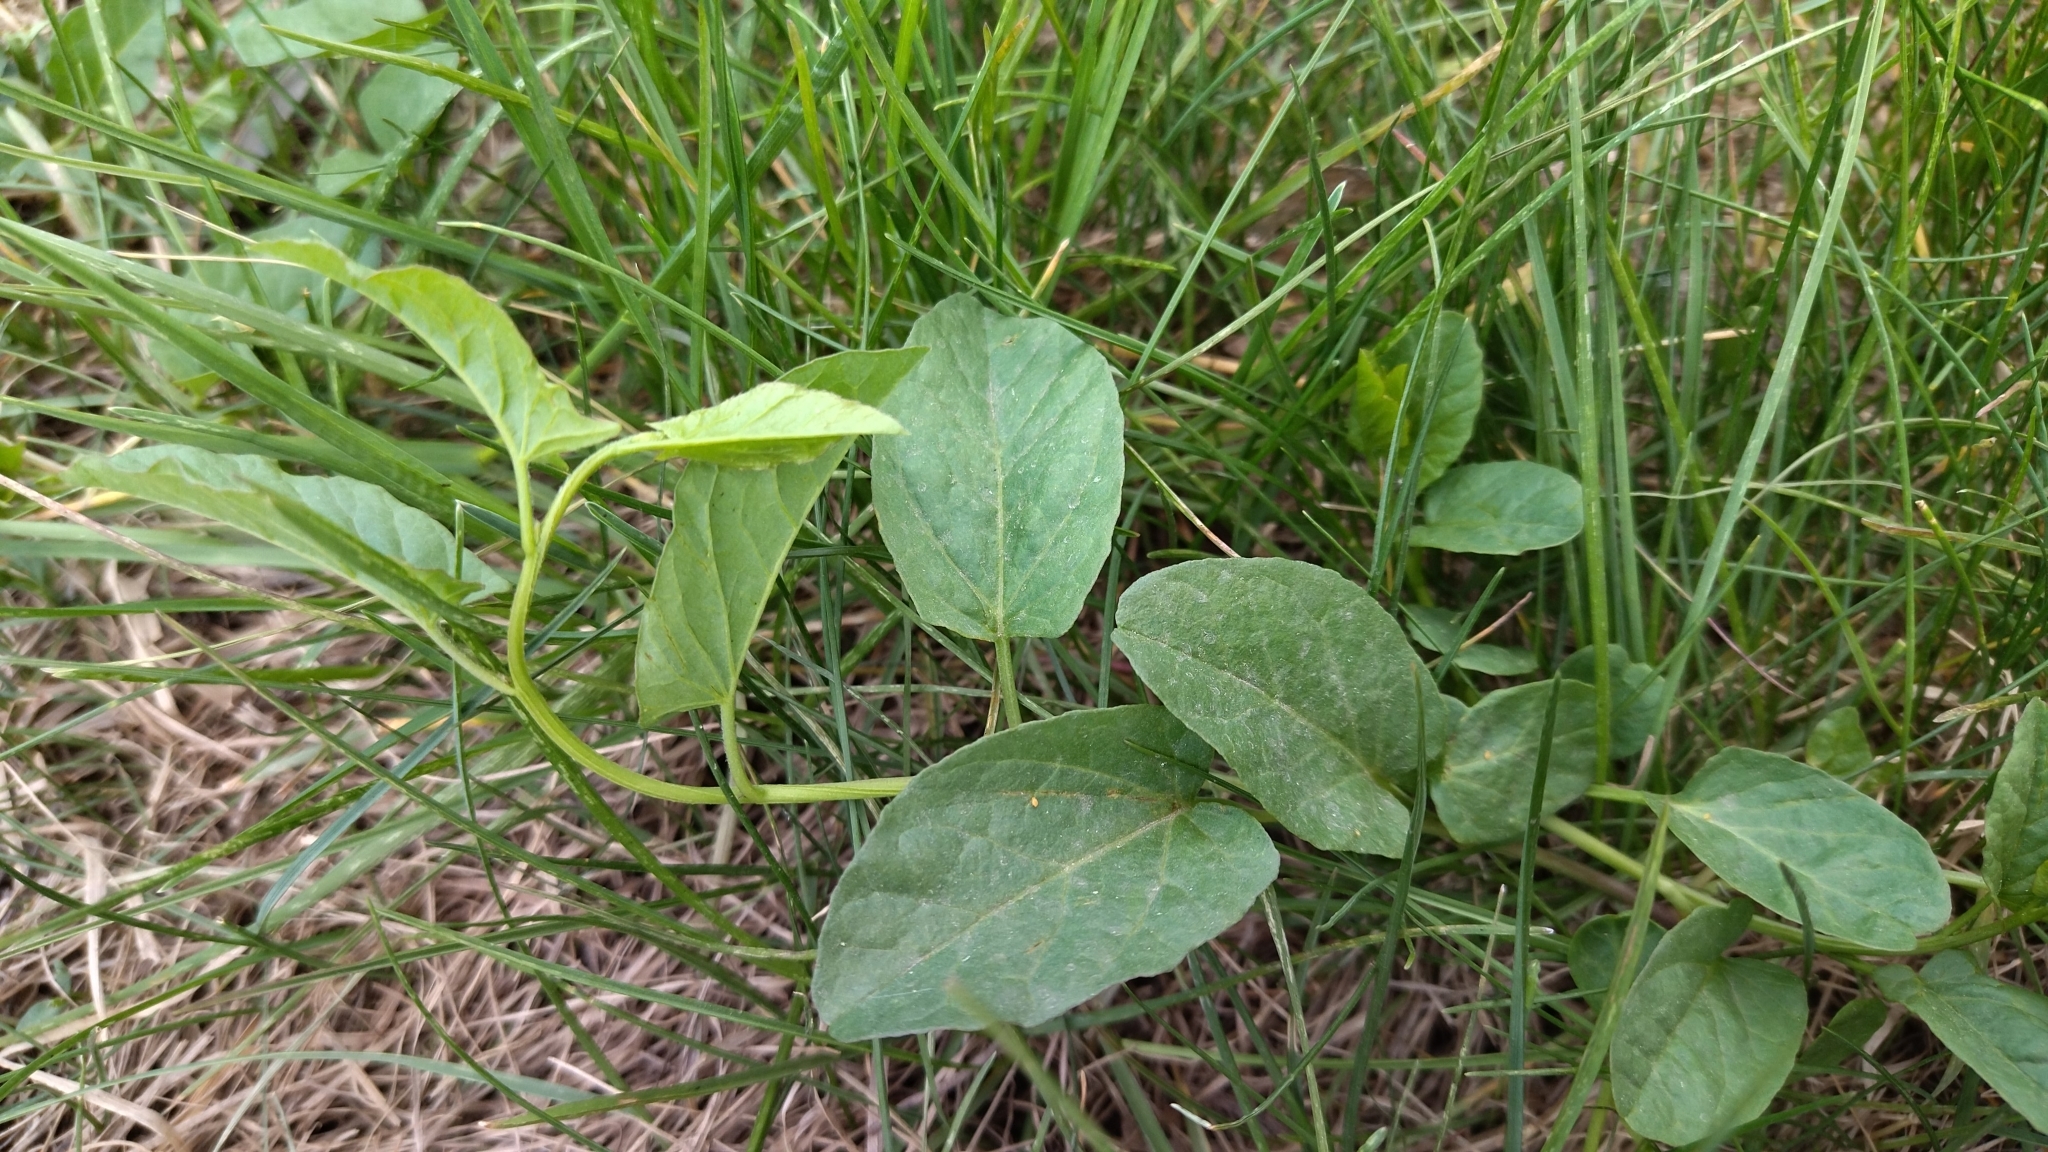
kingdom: Plantae
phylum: Tracheophyta
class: Magnoliopsida
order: Solanales
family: Convolvulaceae
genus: Convolvulus
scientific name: Convolvulus arvensis
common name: Field bindweed
